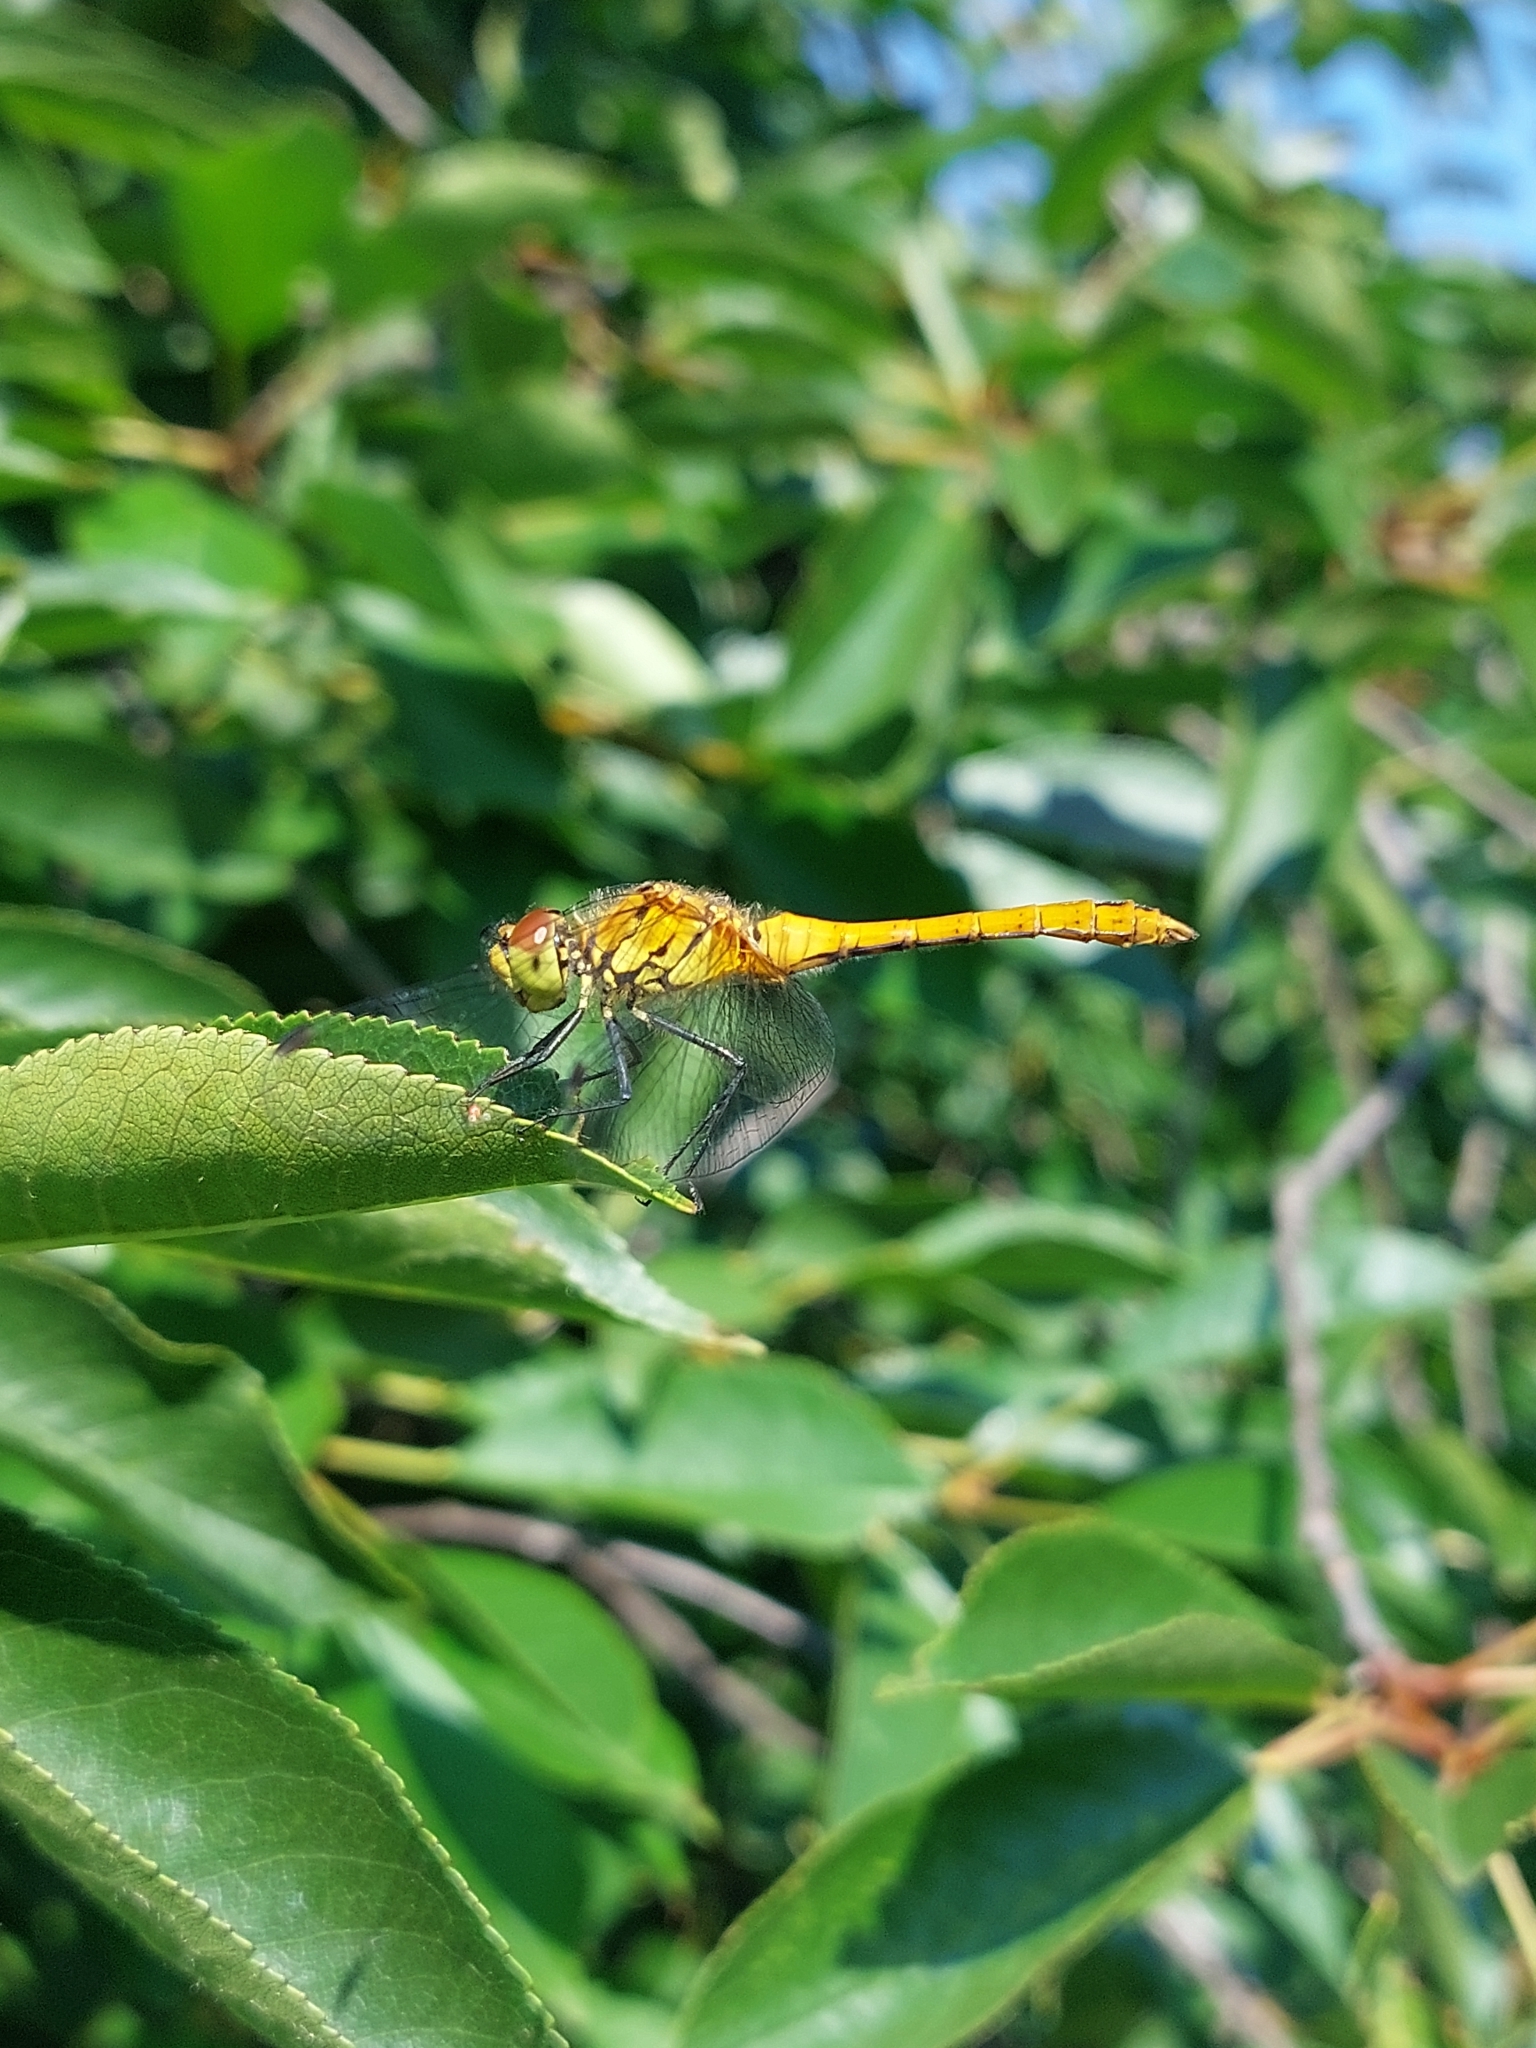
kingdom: Animalia
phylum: Arthropoda
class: Insecta
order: Odonata
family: Libellulidae
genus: Sympetrum
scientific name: Sympetrum sanguineum
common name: Ruddy darter
